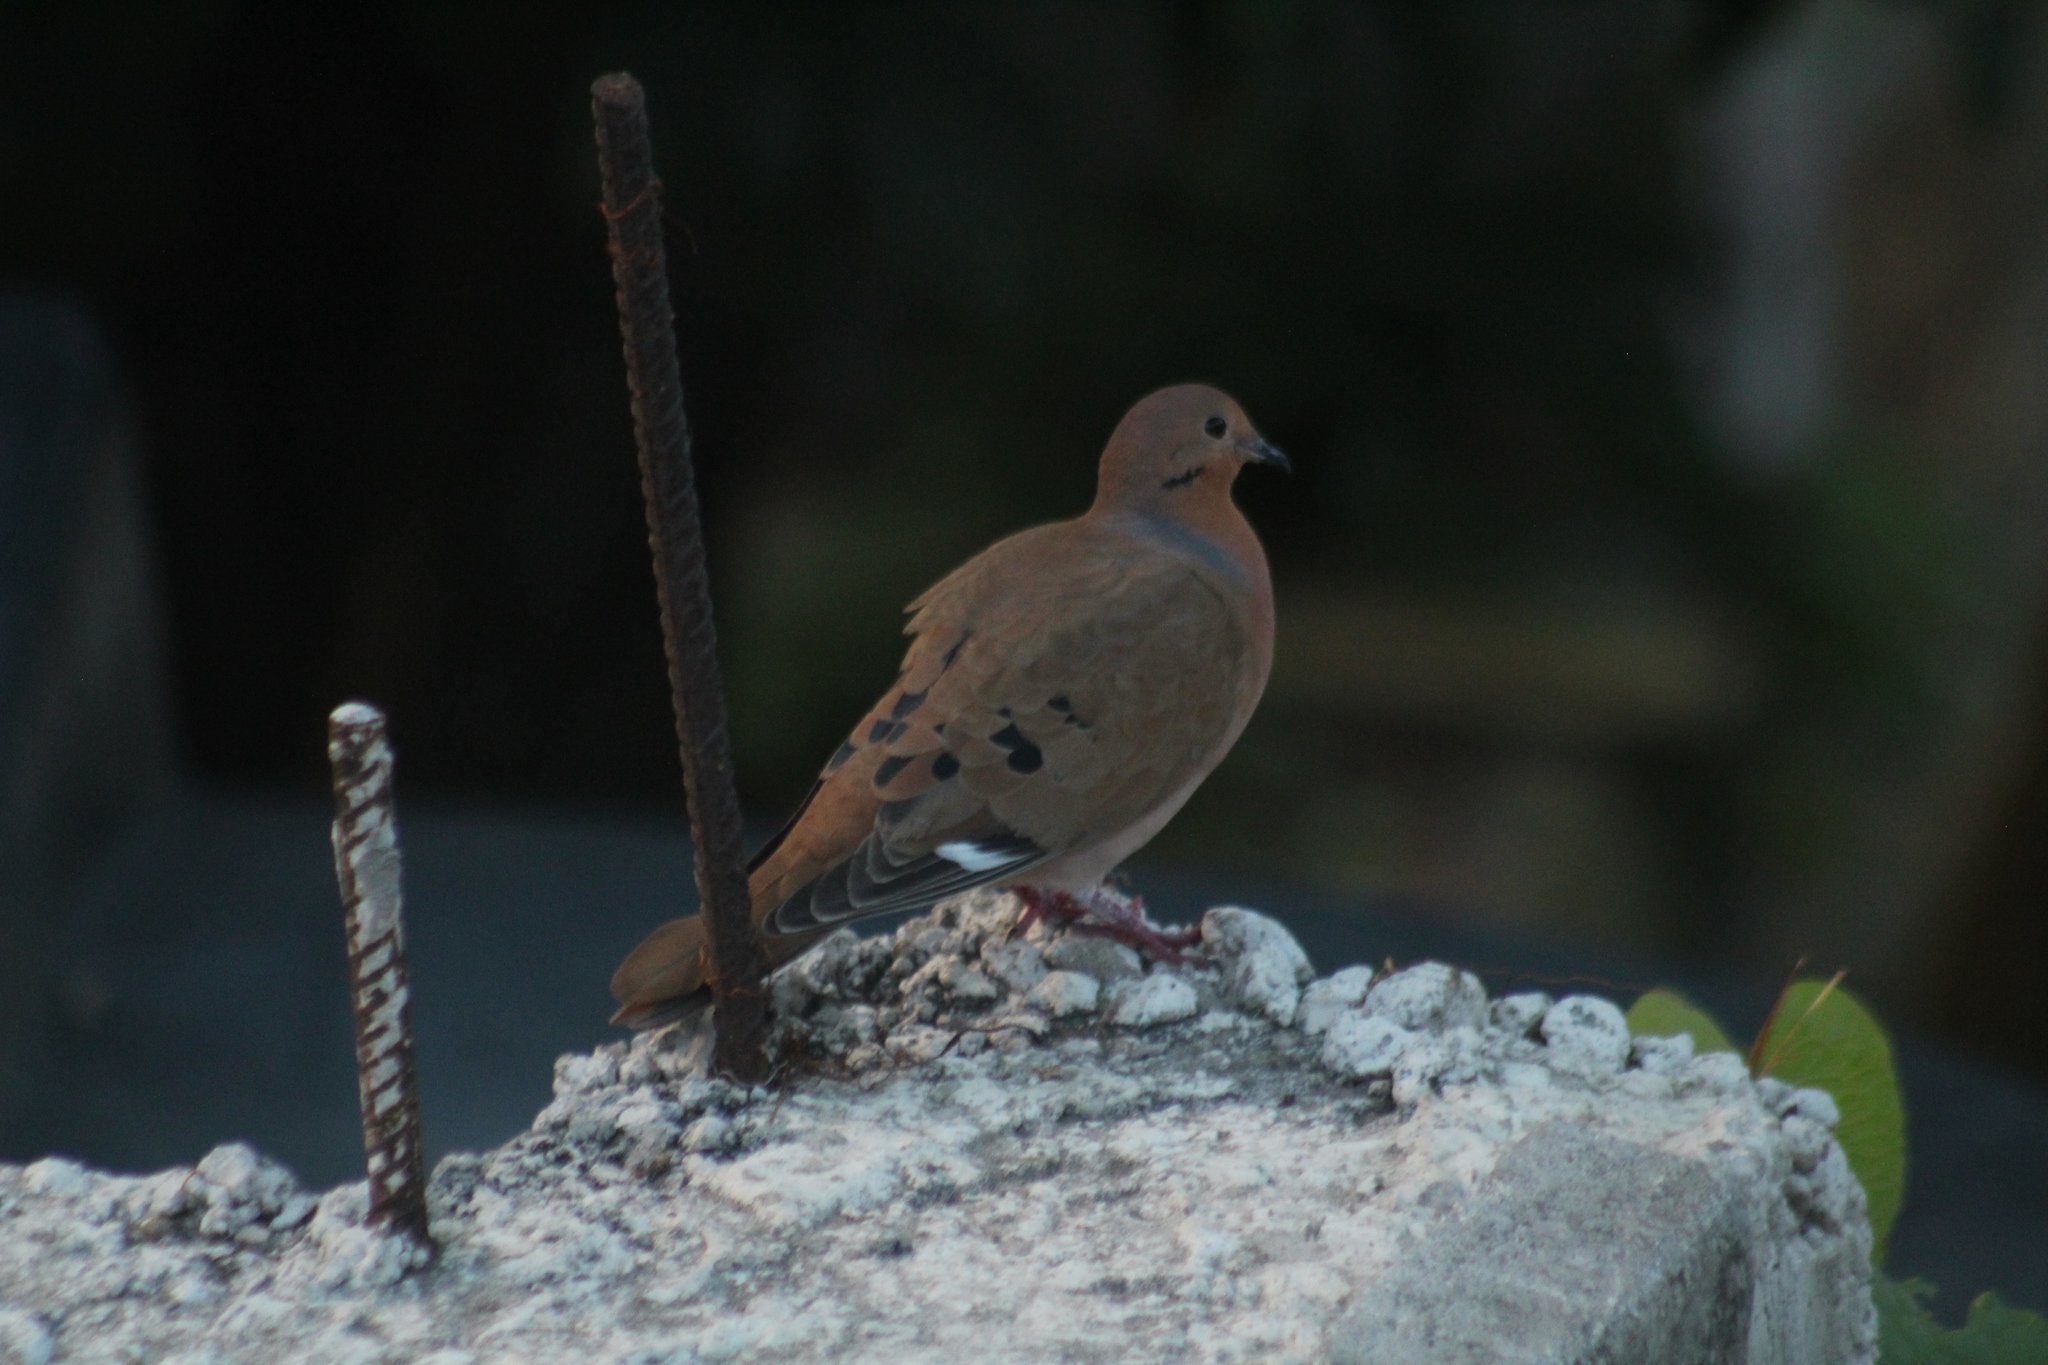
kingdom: Animalia
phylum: Chordata
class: Aves
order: Columbiformes
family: Columbidae
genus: Zenaida
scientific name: Zenaida aurita
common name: Zenaida dove
